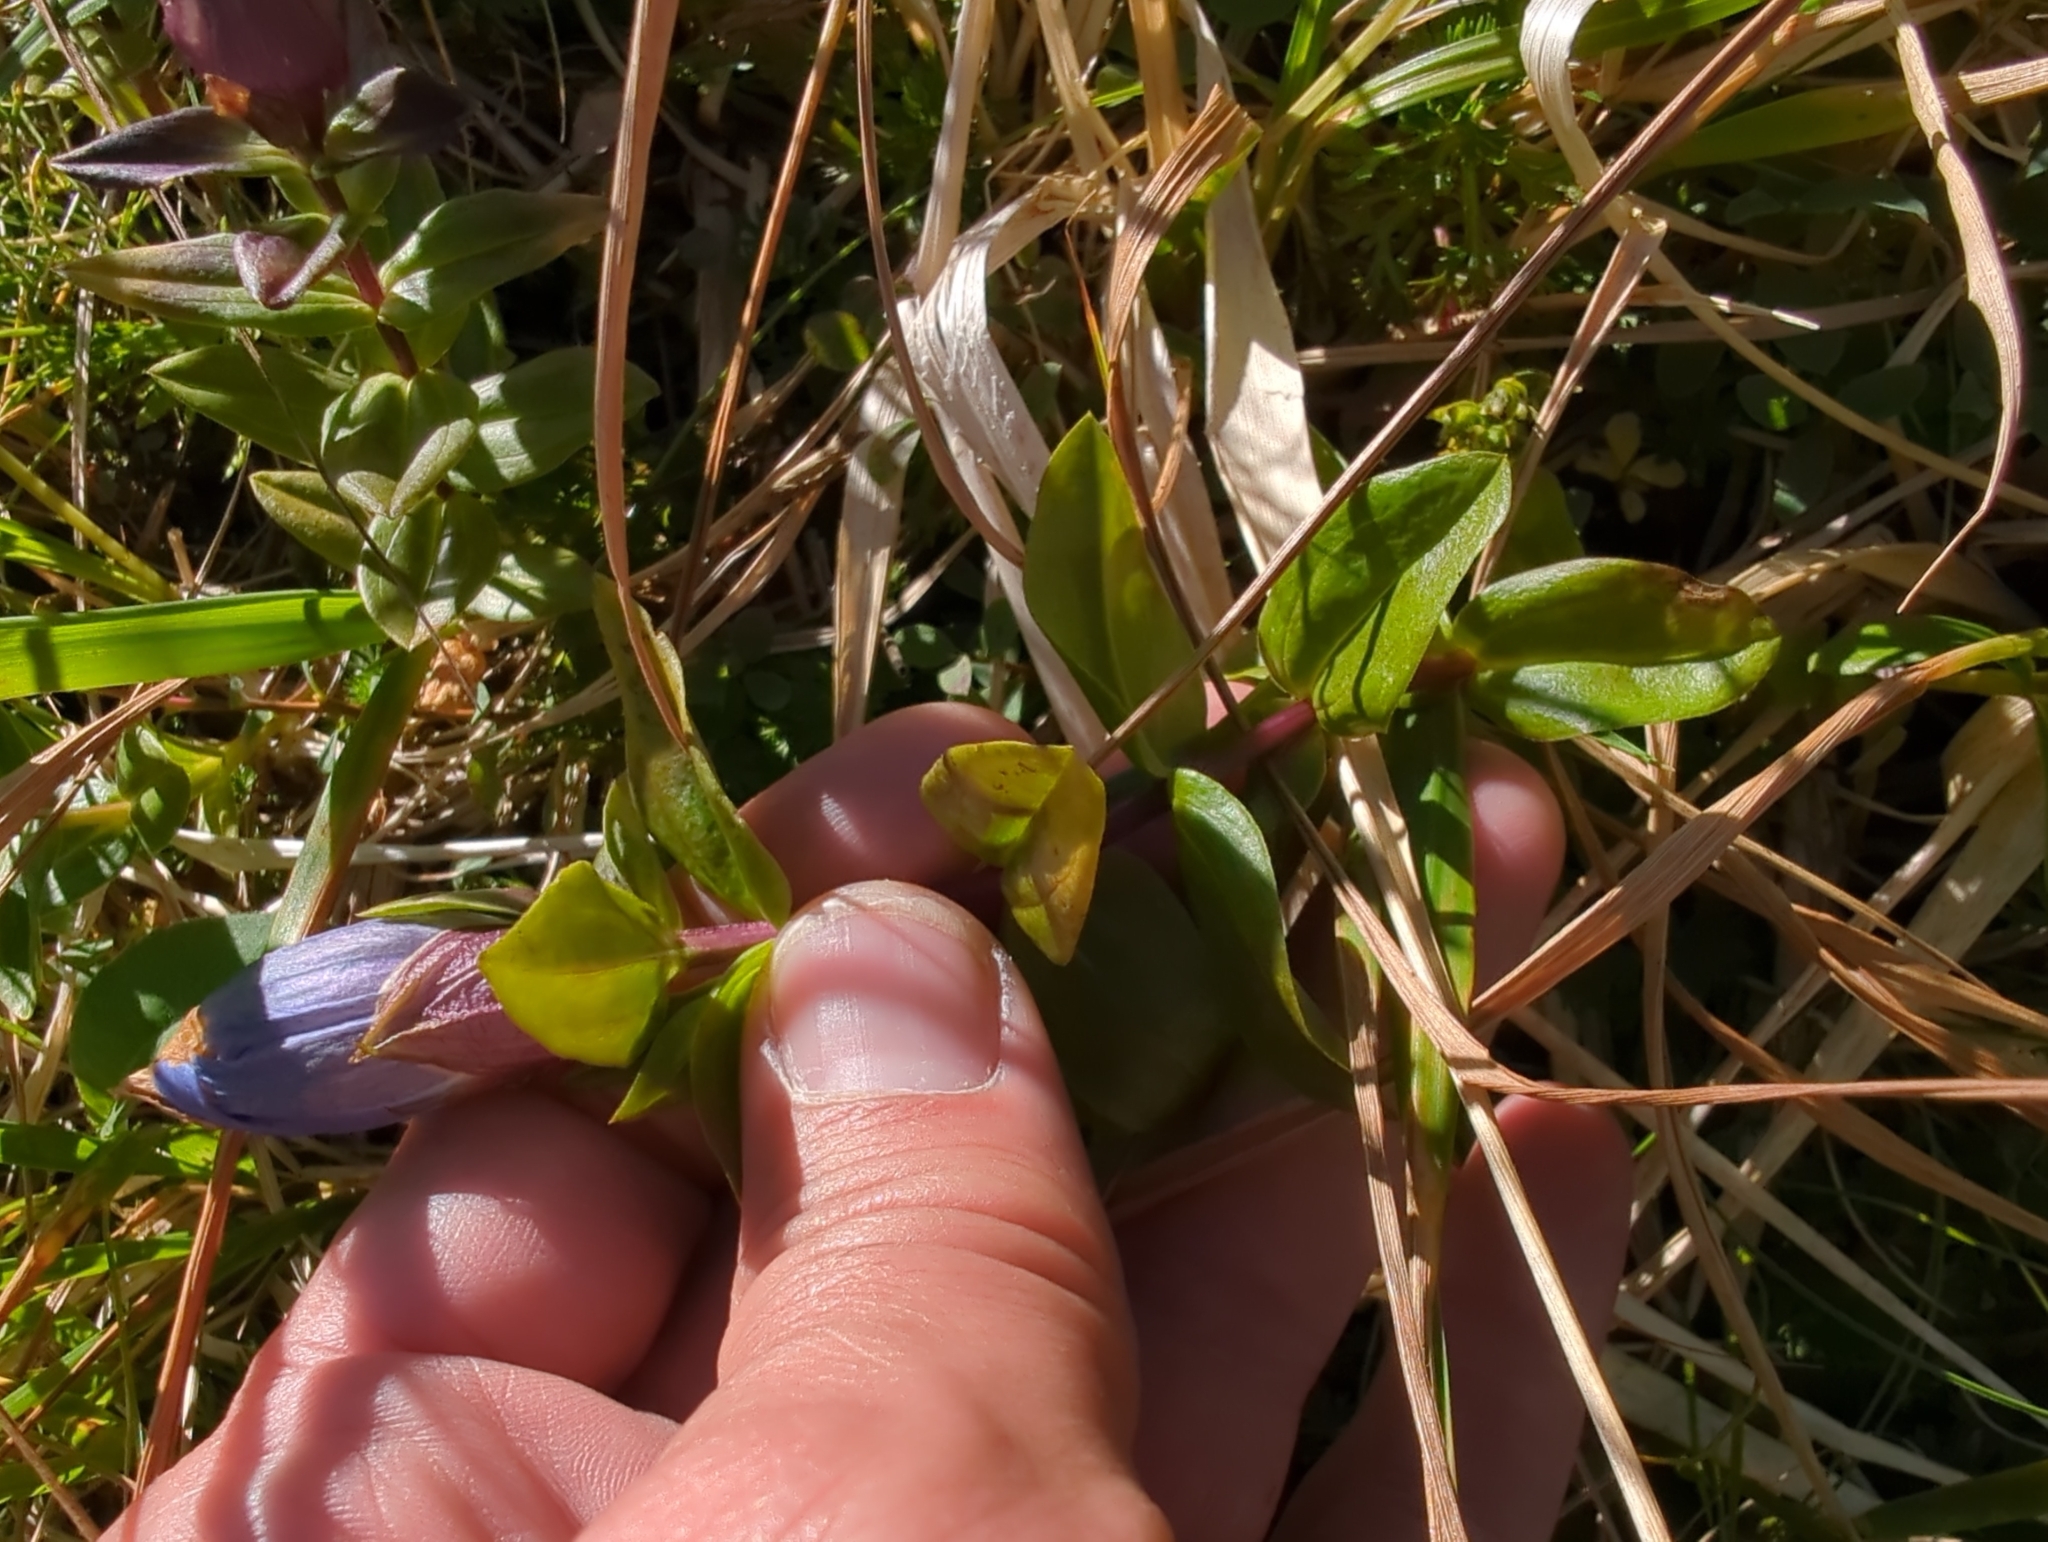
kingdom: Plantae
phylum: Tracheophyta
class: Magnoliopsida
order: Gentianales
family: Gentianaceae
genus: Gentiana
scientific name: Gentiana platypetala
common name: Broad-petalled gentian
